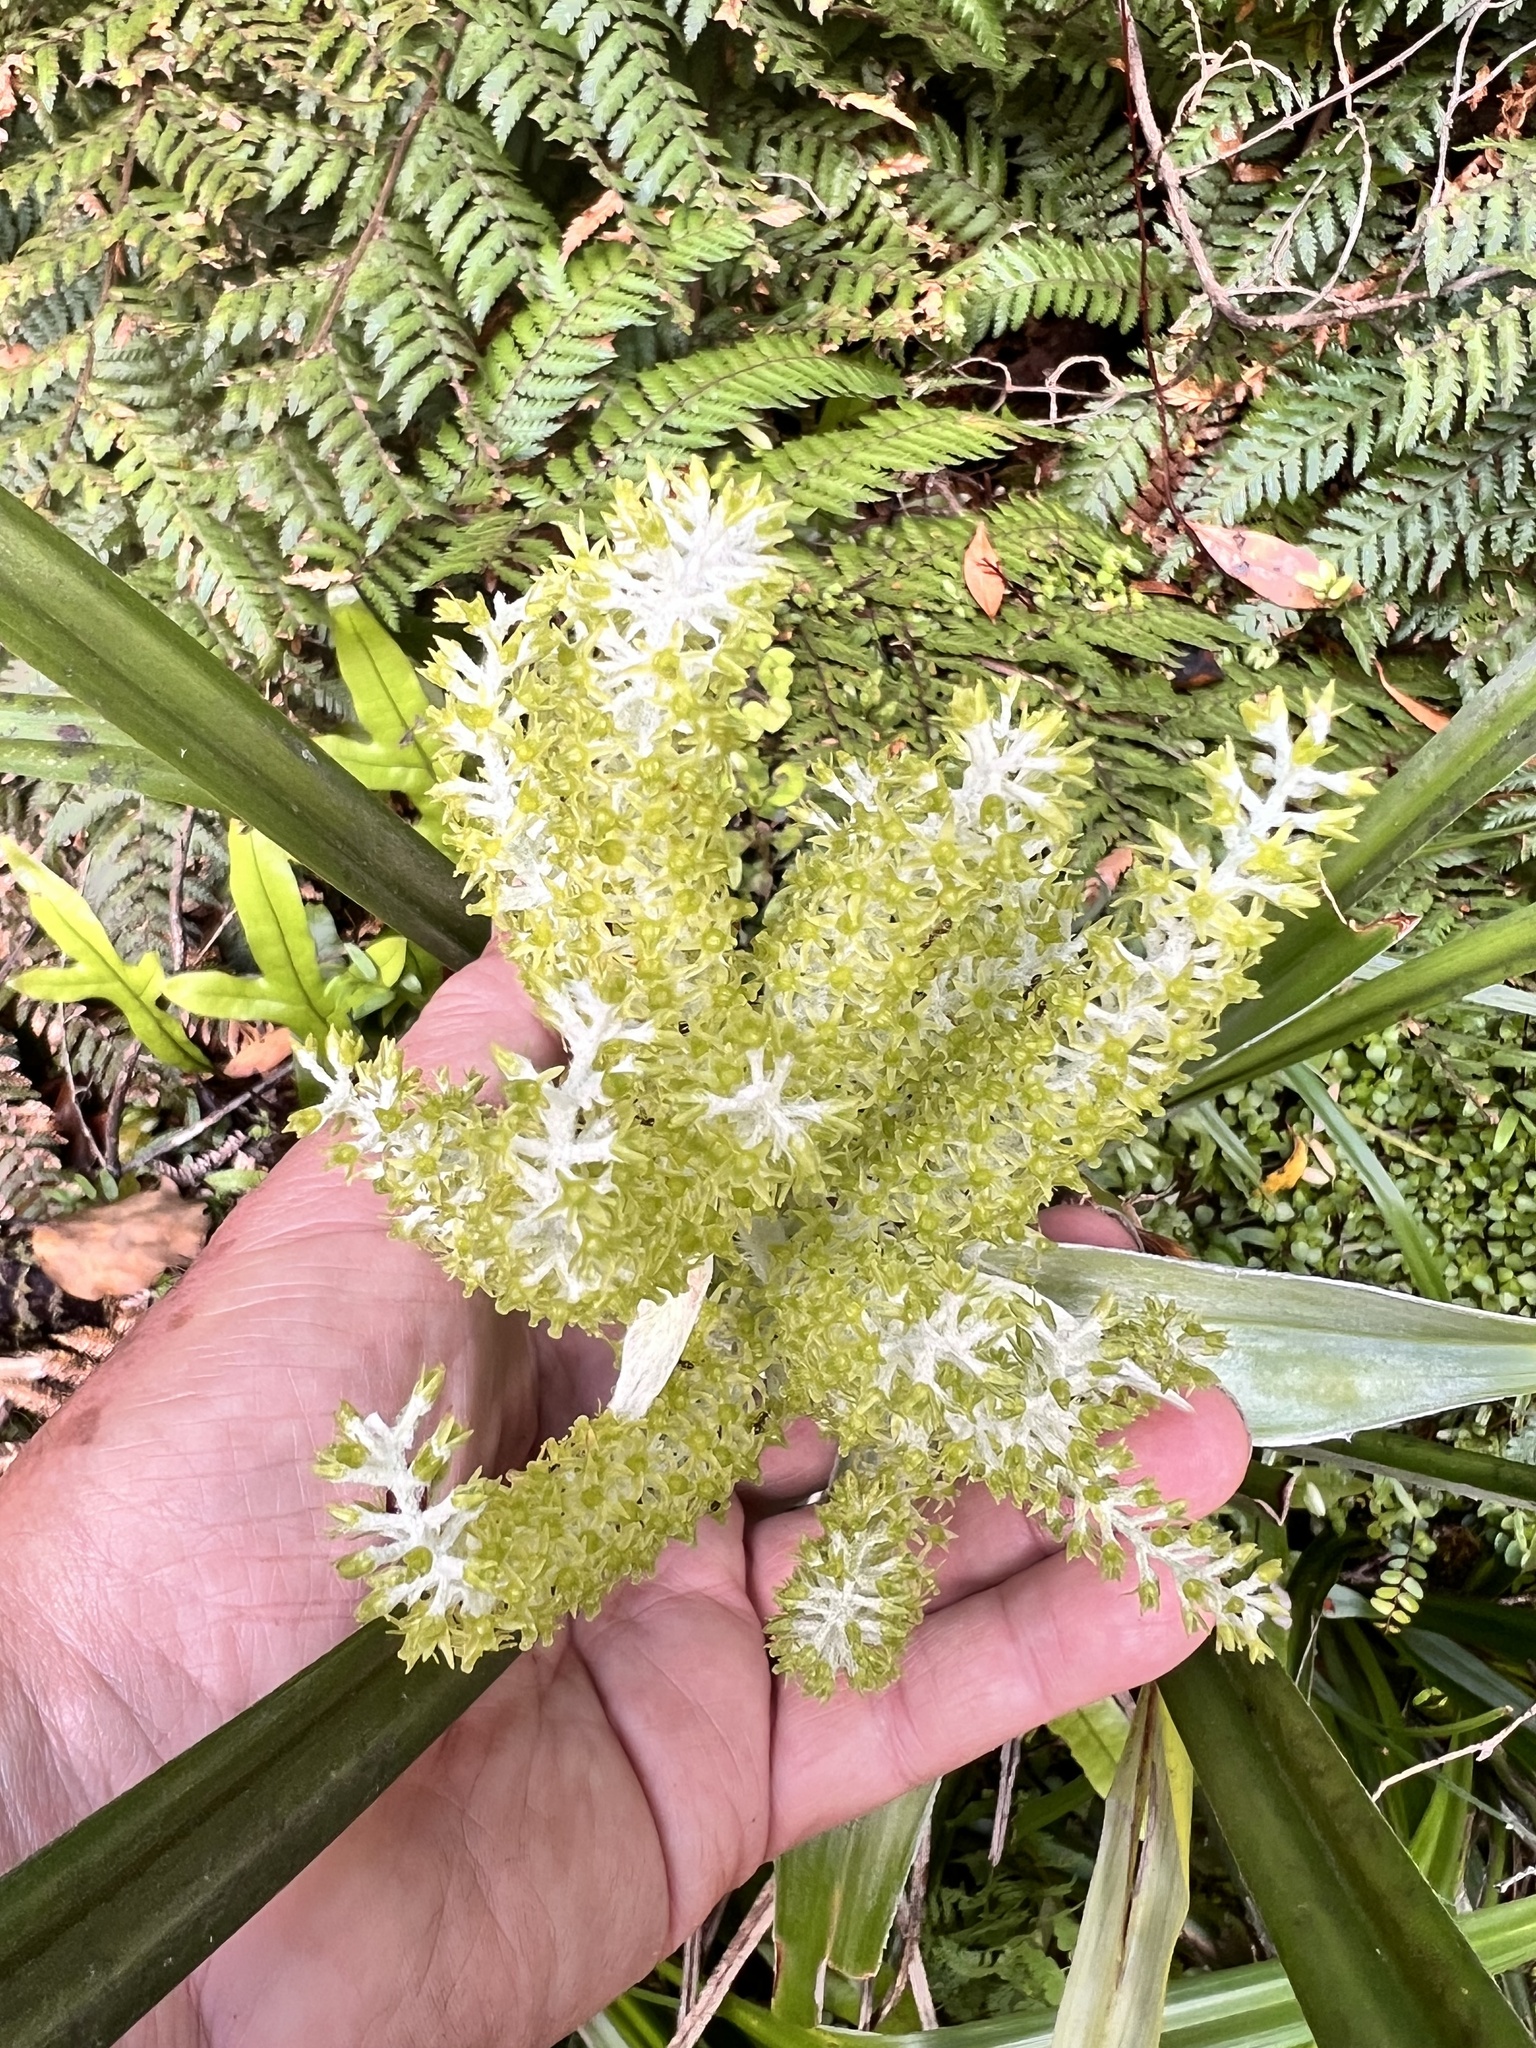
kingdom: Plantae
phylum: Tracheophyta
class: Liliopsida
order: Asparagales
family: Asteliaceae
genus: Astelia
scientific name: Astelia solandri
